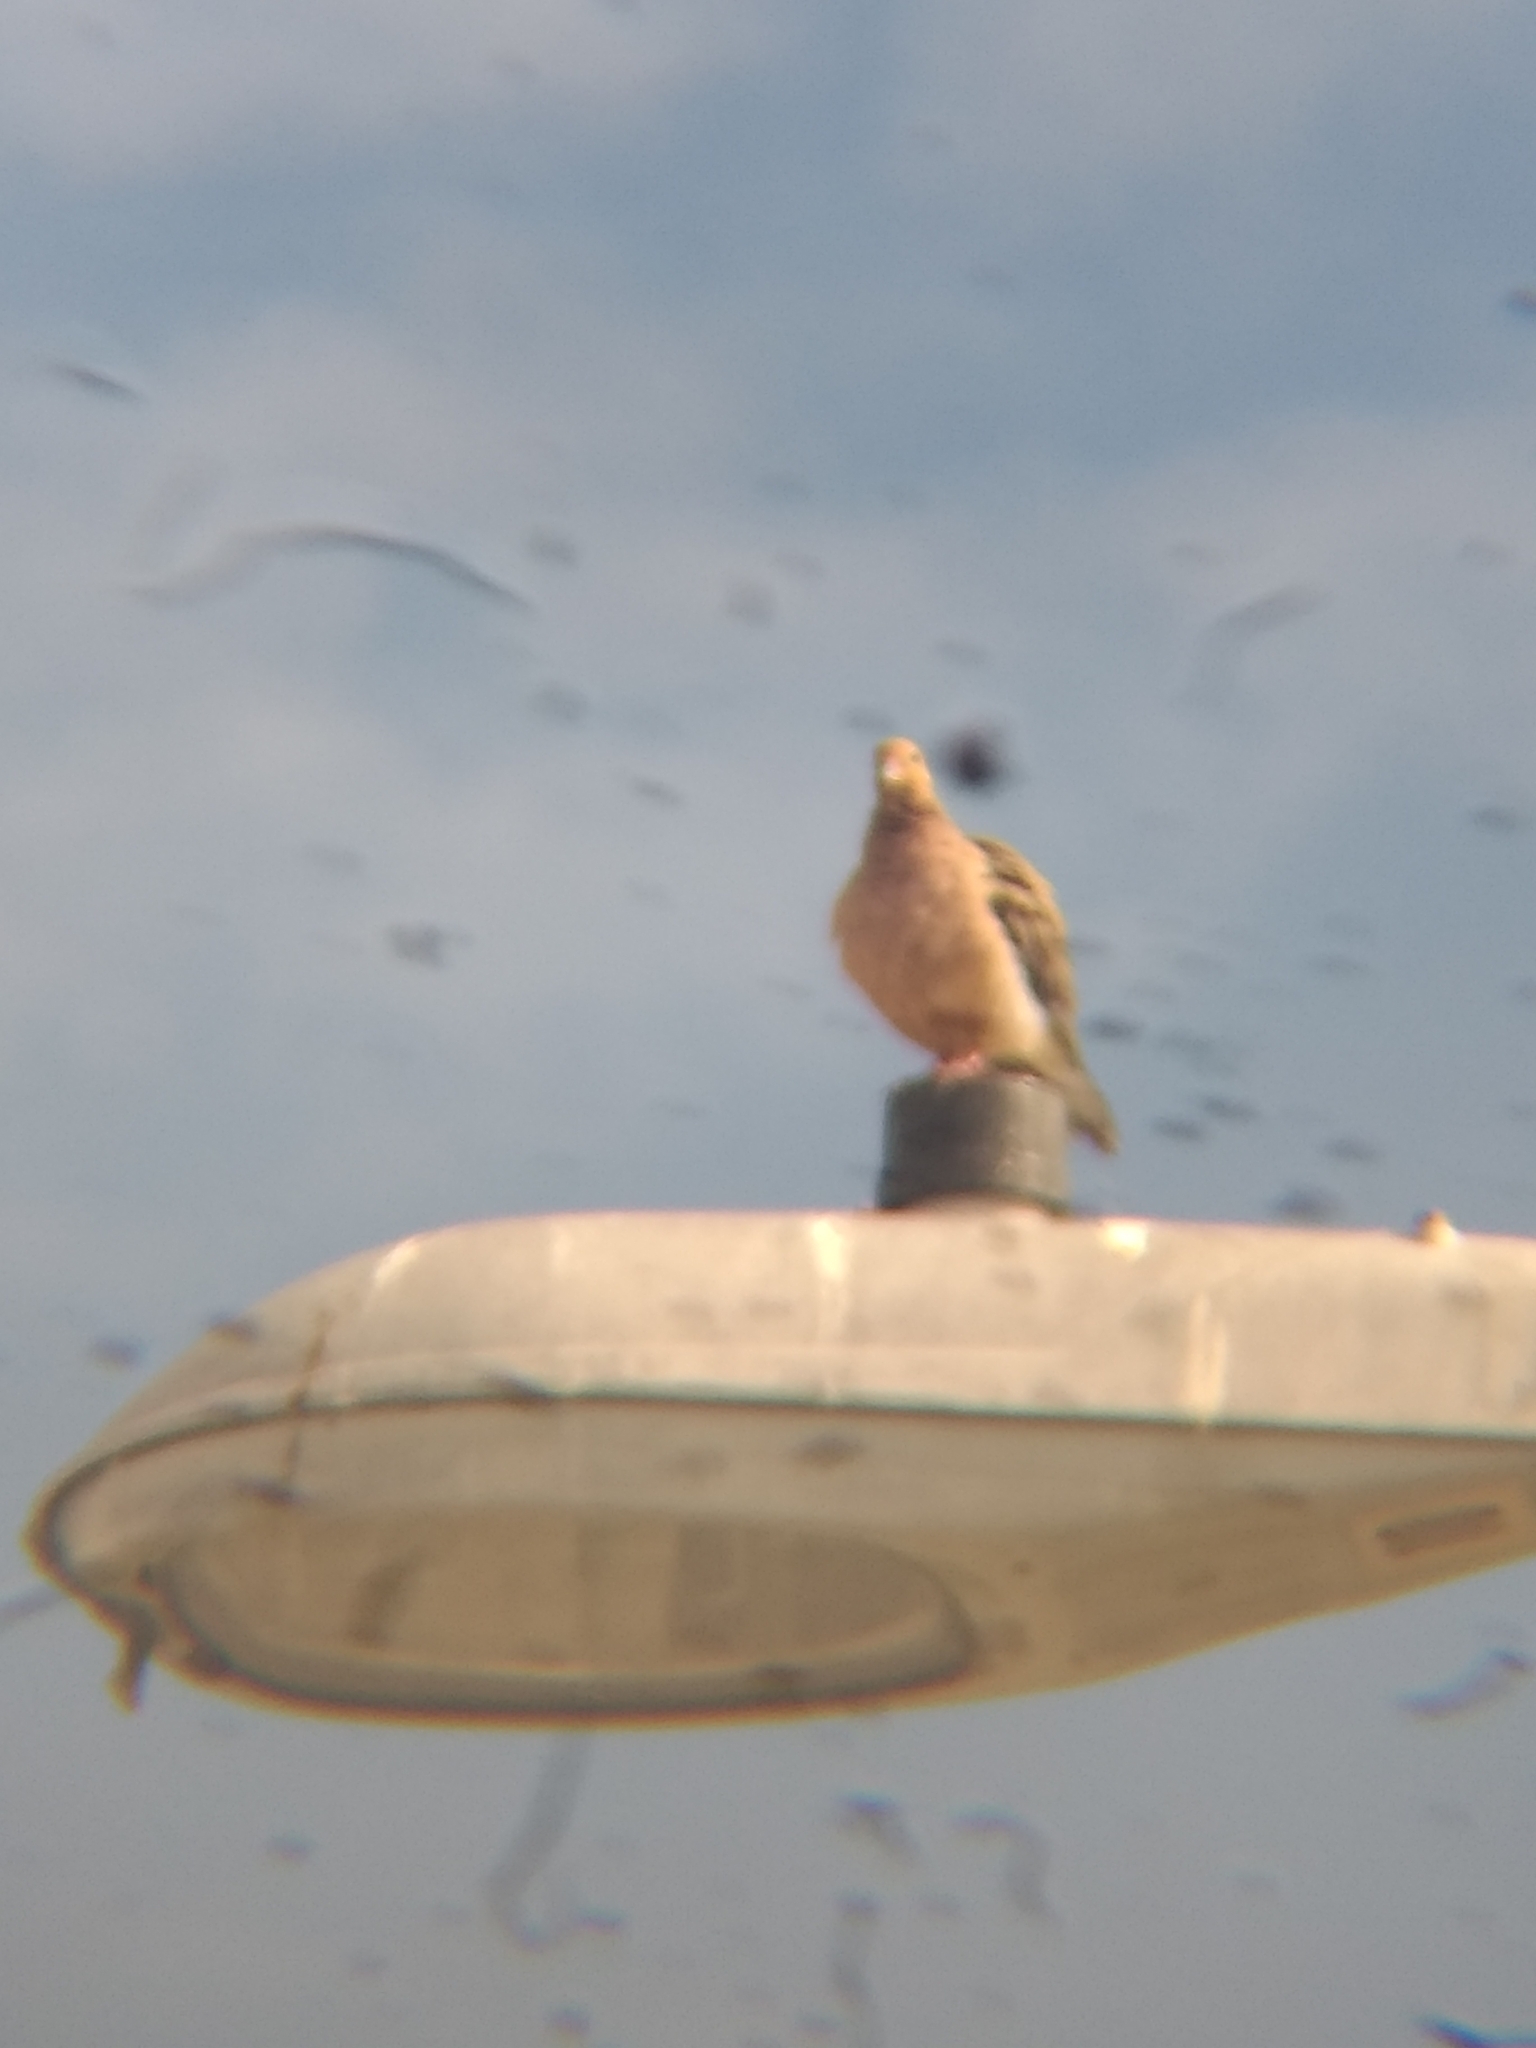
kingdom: Animalia
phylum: Chordata
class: Aves
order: Columbiformes
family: Columbidae
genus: Zenaida
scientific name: Zenaida macroura
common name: Mourning dove
